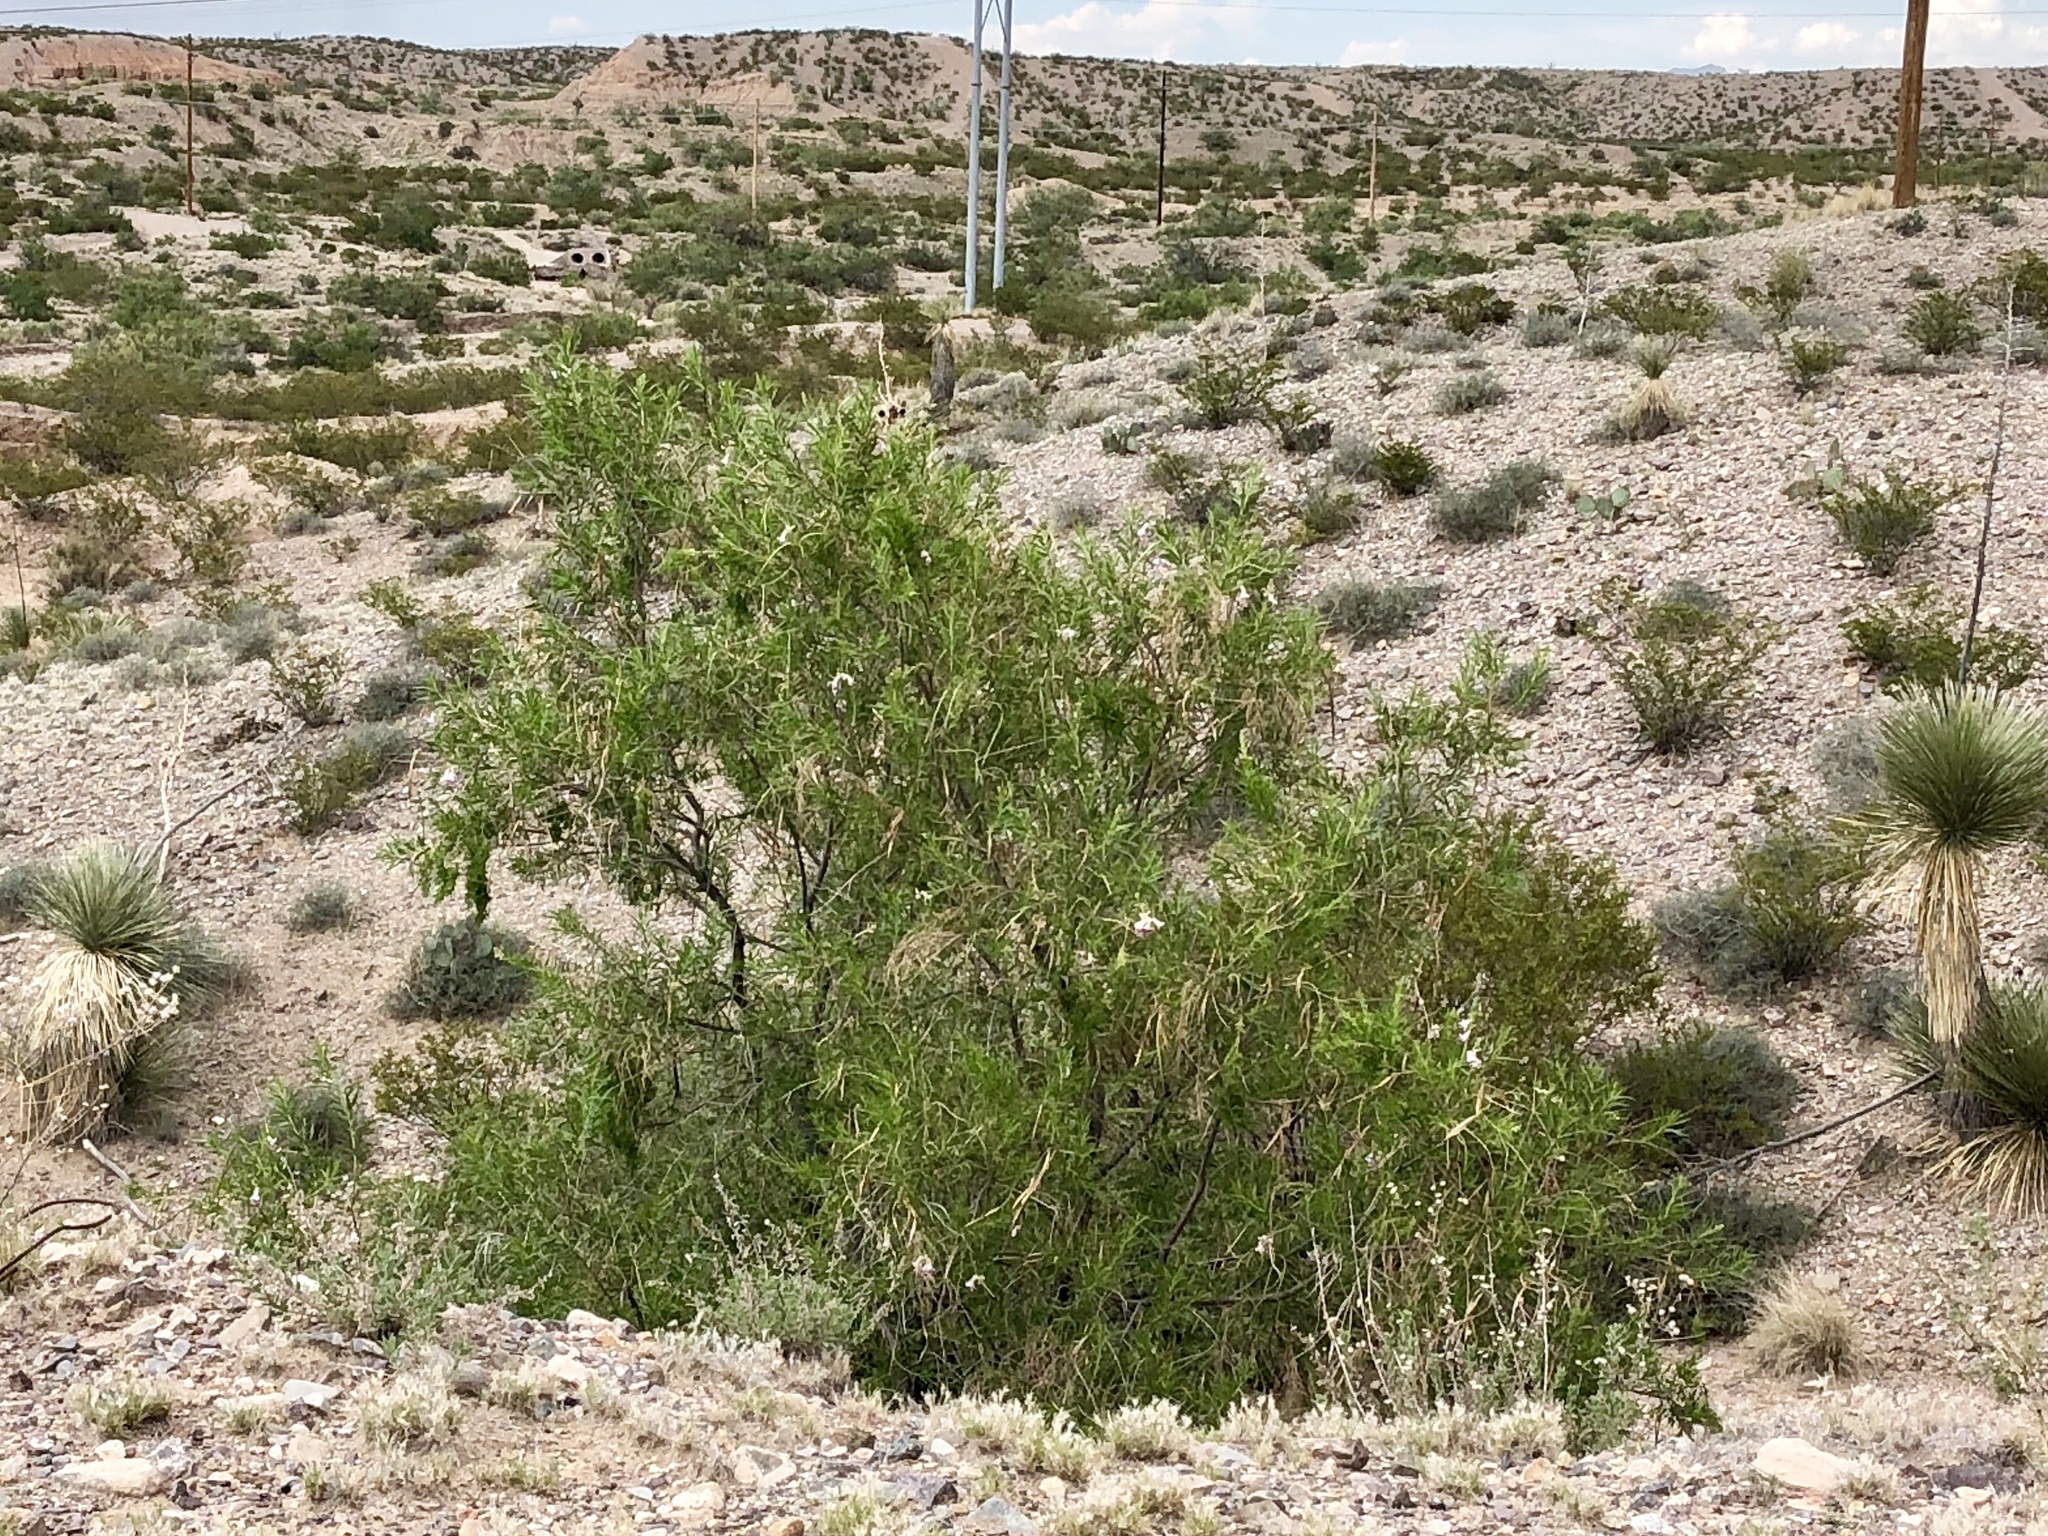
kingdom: Plantae
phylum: Tracheophyta
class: Magnoliopsida
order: Lamiales
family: Bignoniaceae
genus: Chilopsis
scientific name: Chilopsis linearis
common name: Desert-willow
